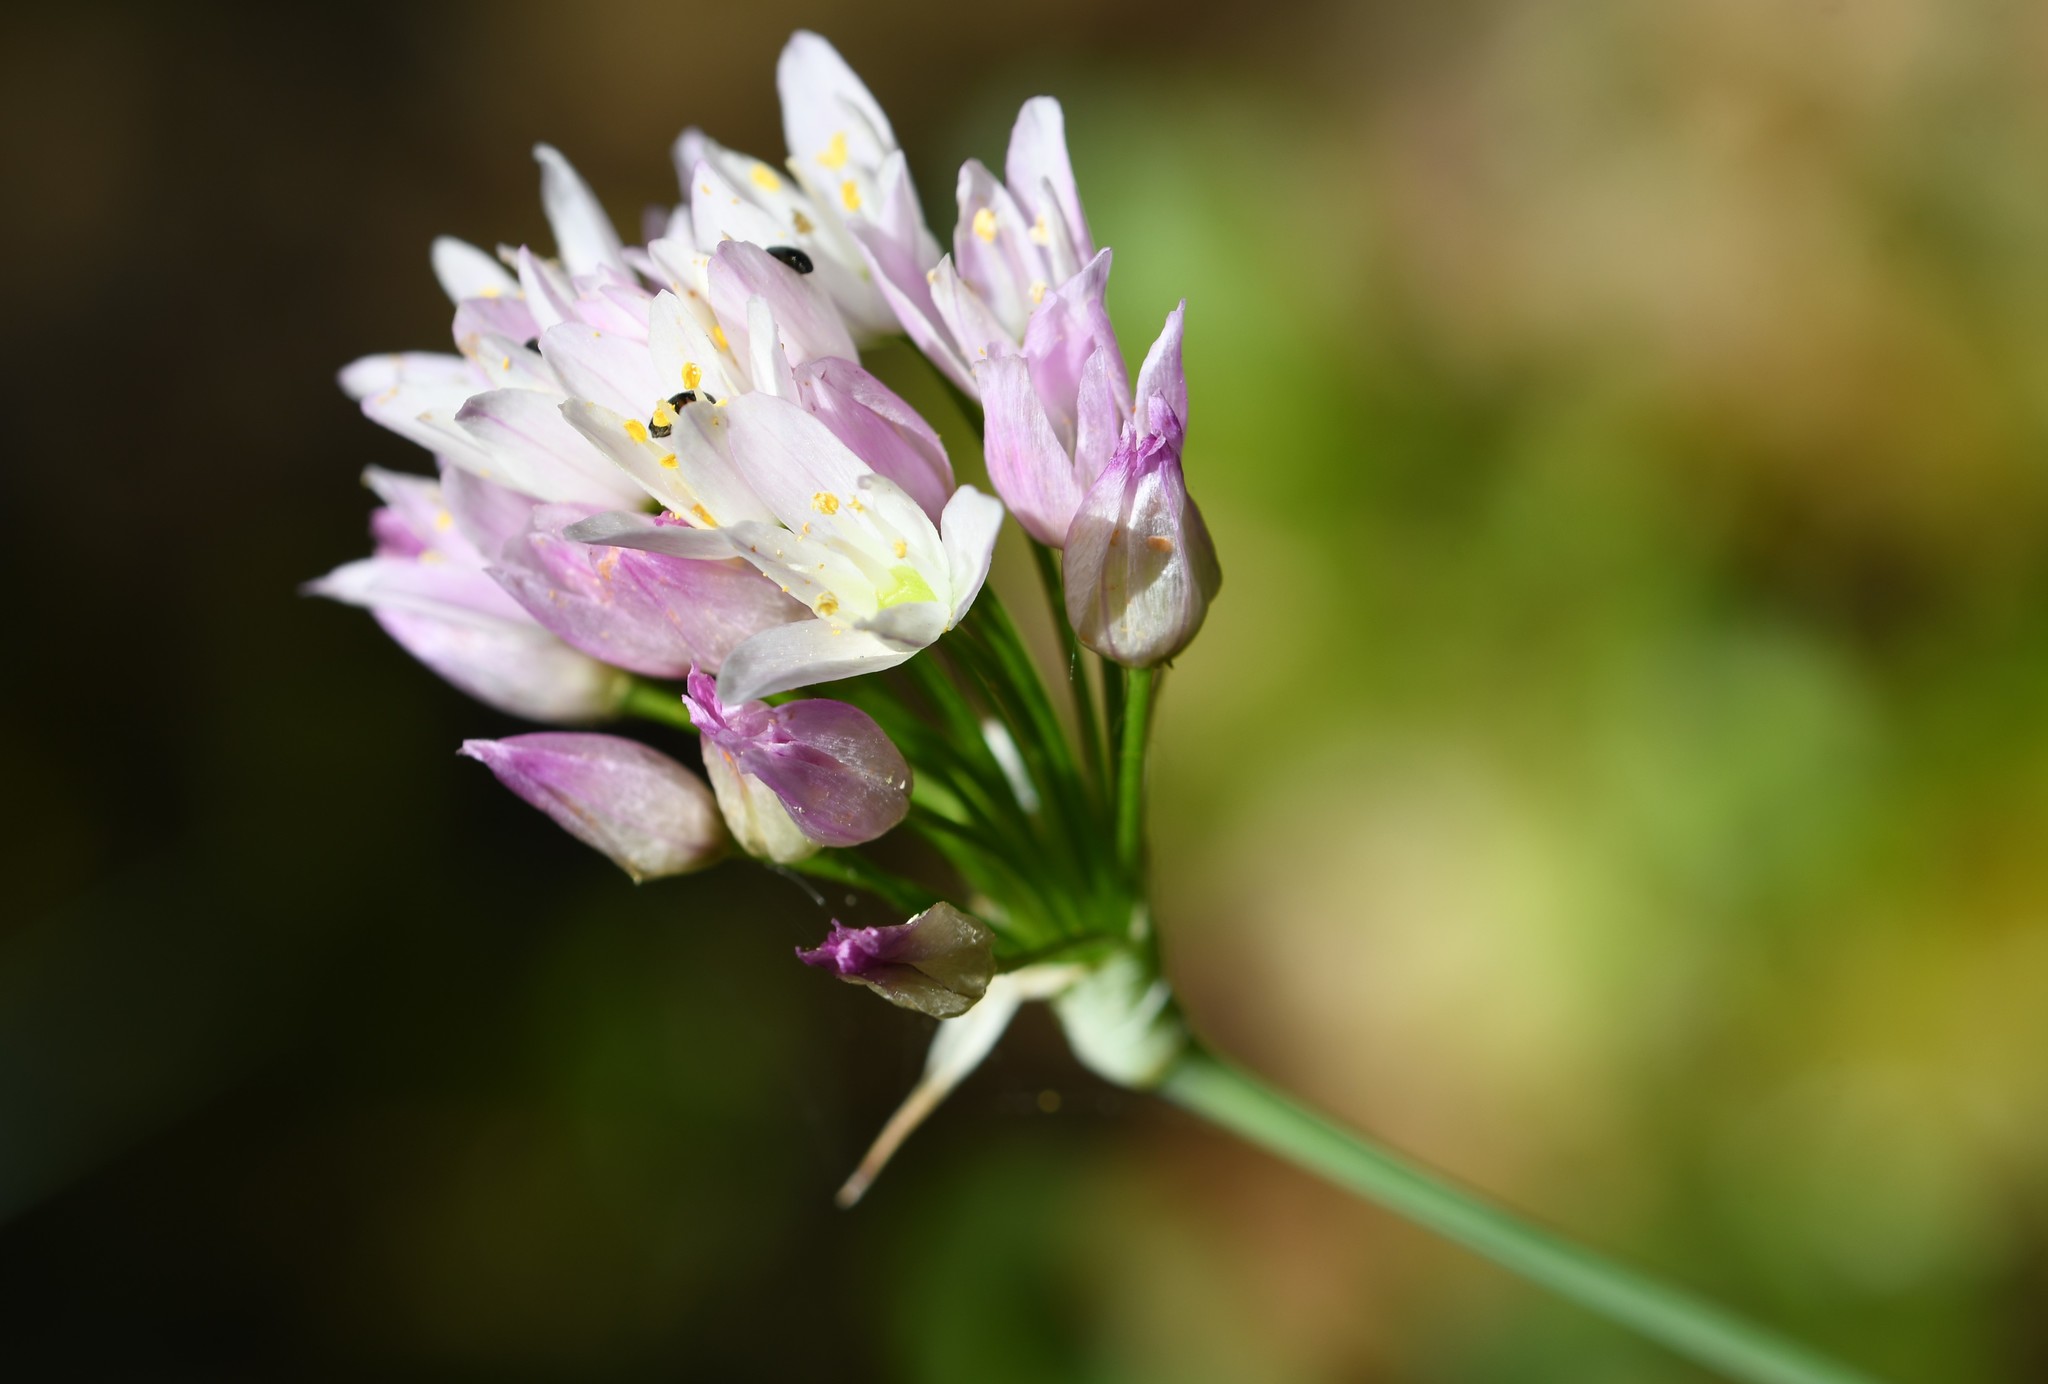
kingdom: Plantae
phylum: Tracheophyta
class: Liliopsida
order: Asparagales
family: Amaryllidaceae
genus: Allium
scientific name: Allium roseum
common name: Rosy garlic
